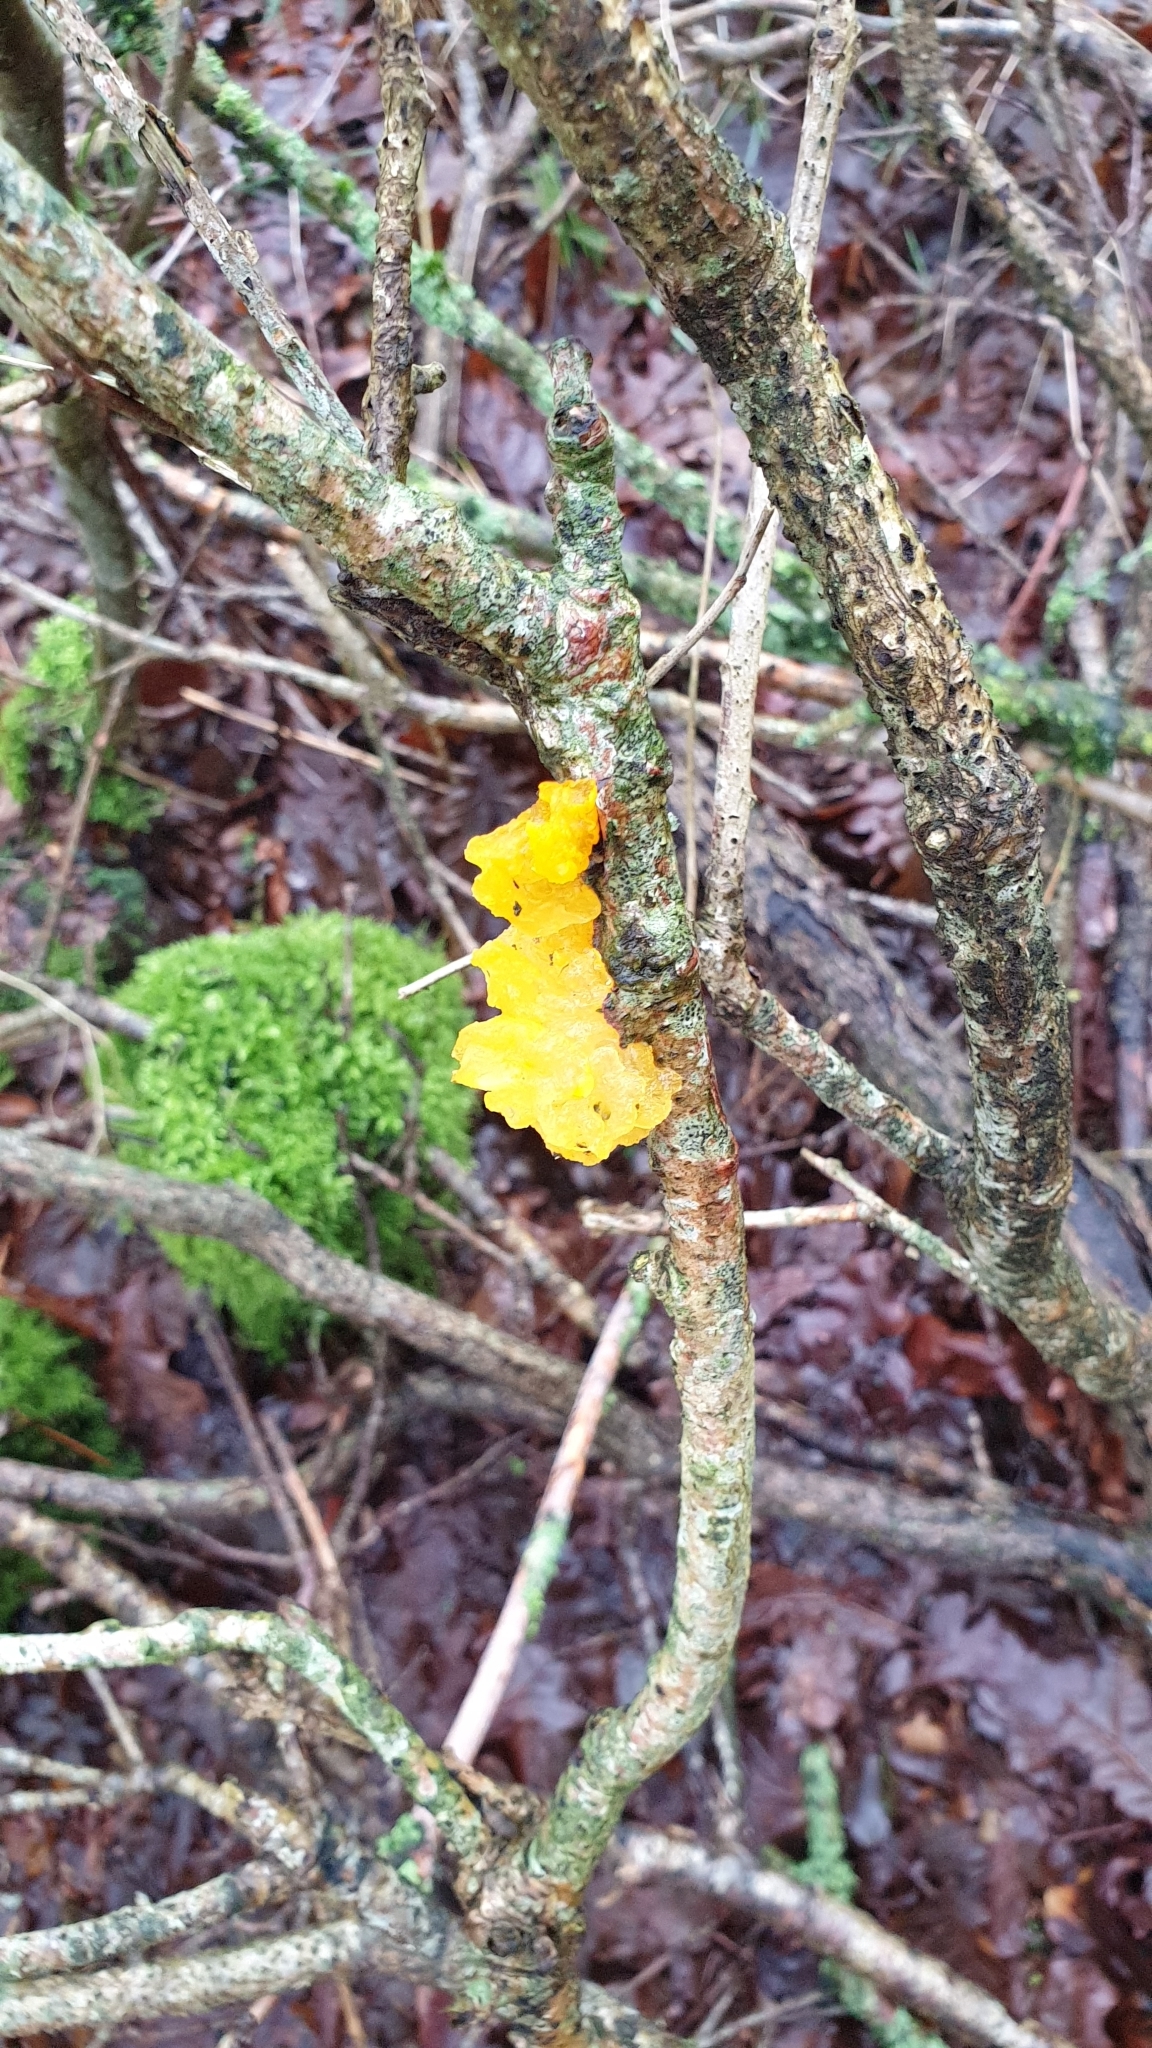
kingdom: Fungi
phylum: Basidiomycota
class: Tremellomycetes
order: Tremellales
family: Tremellaceae
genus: Tremella
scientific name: Tremella mesenterica
